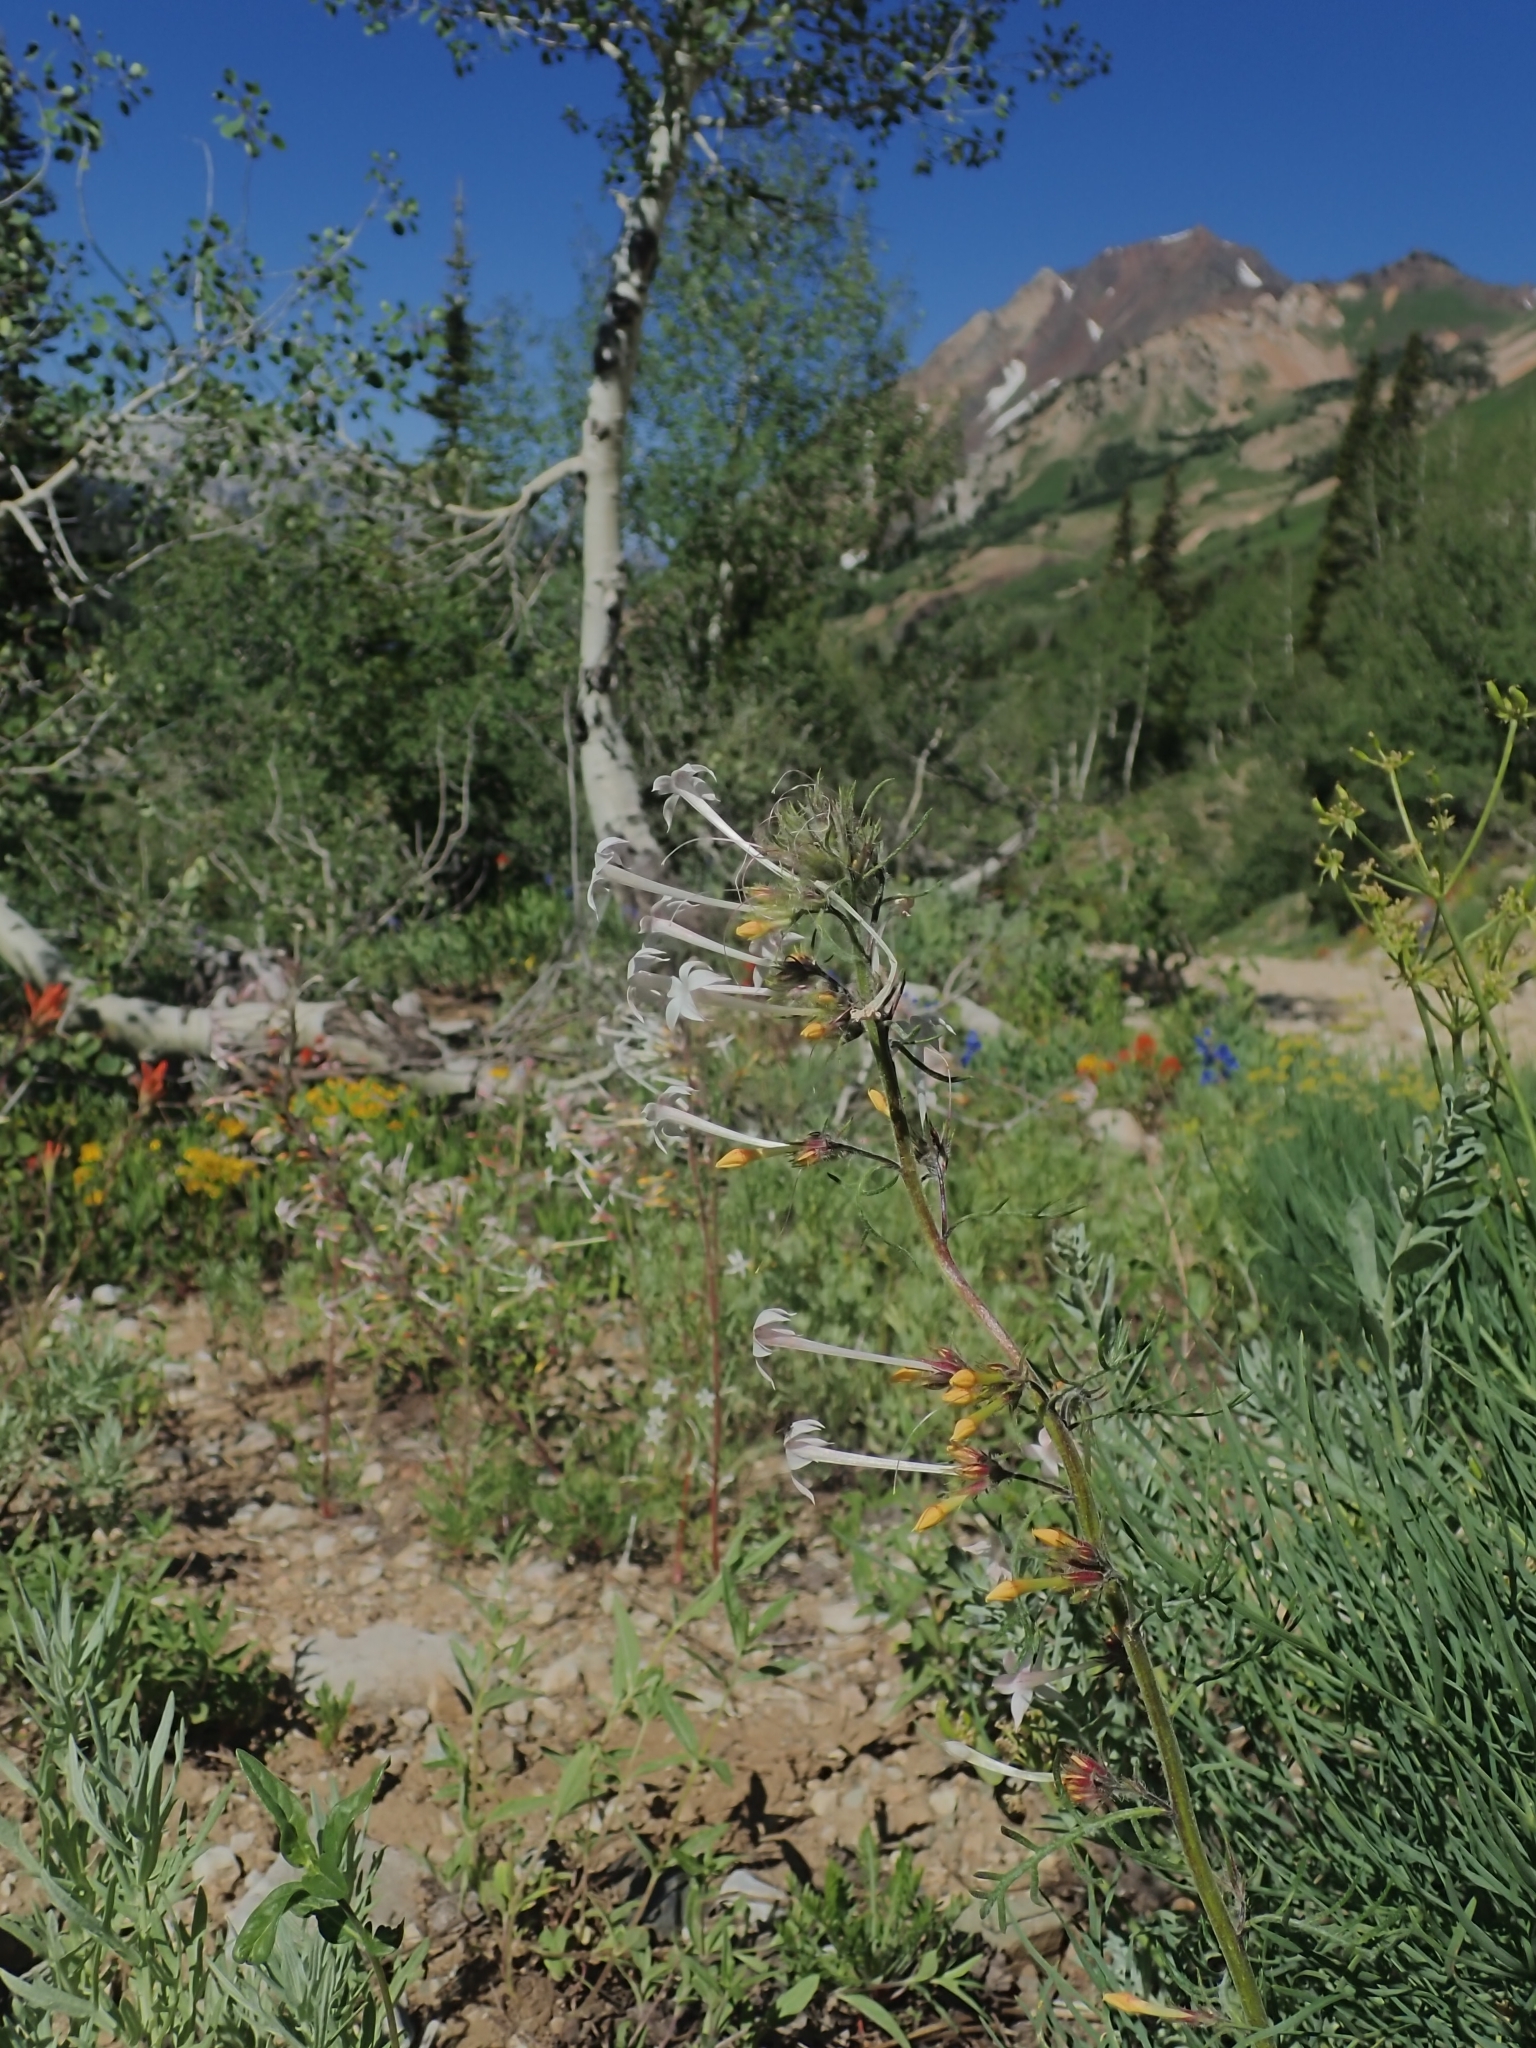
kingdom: Plantae
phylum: Tracheophyta
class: Magnoliopsida
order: Ericales
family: Polemoniaceae
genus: Ipomopsis
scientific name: Ipomopsis tenuituba
